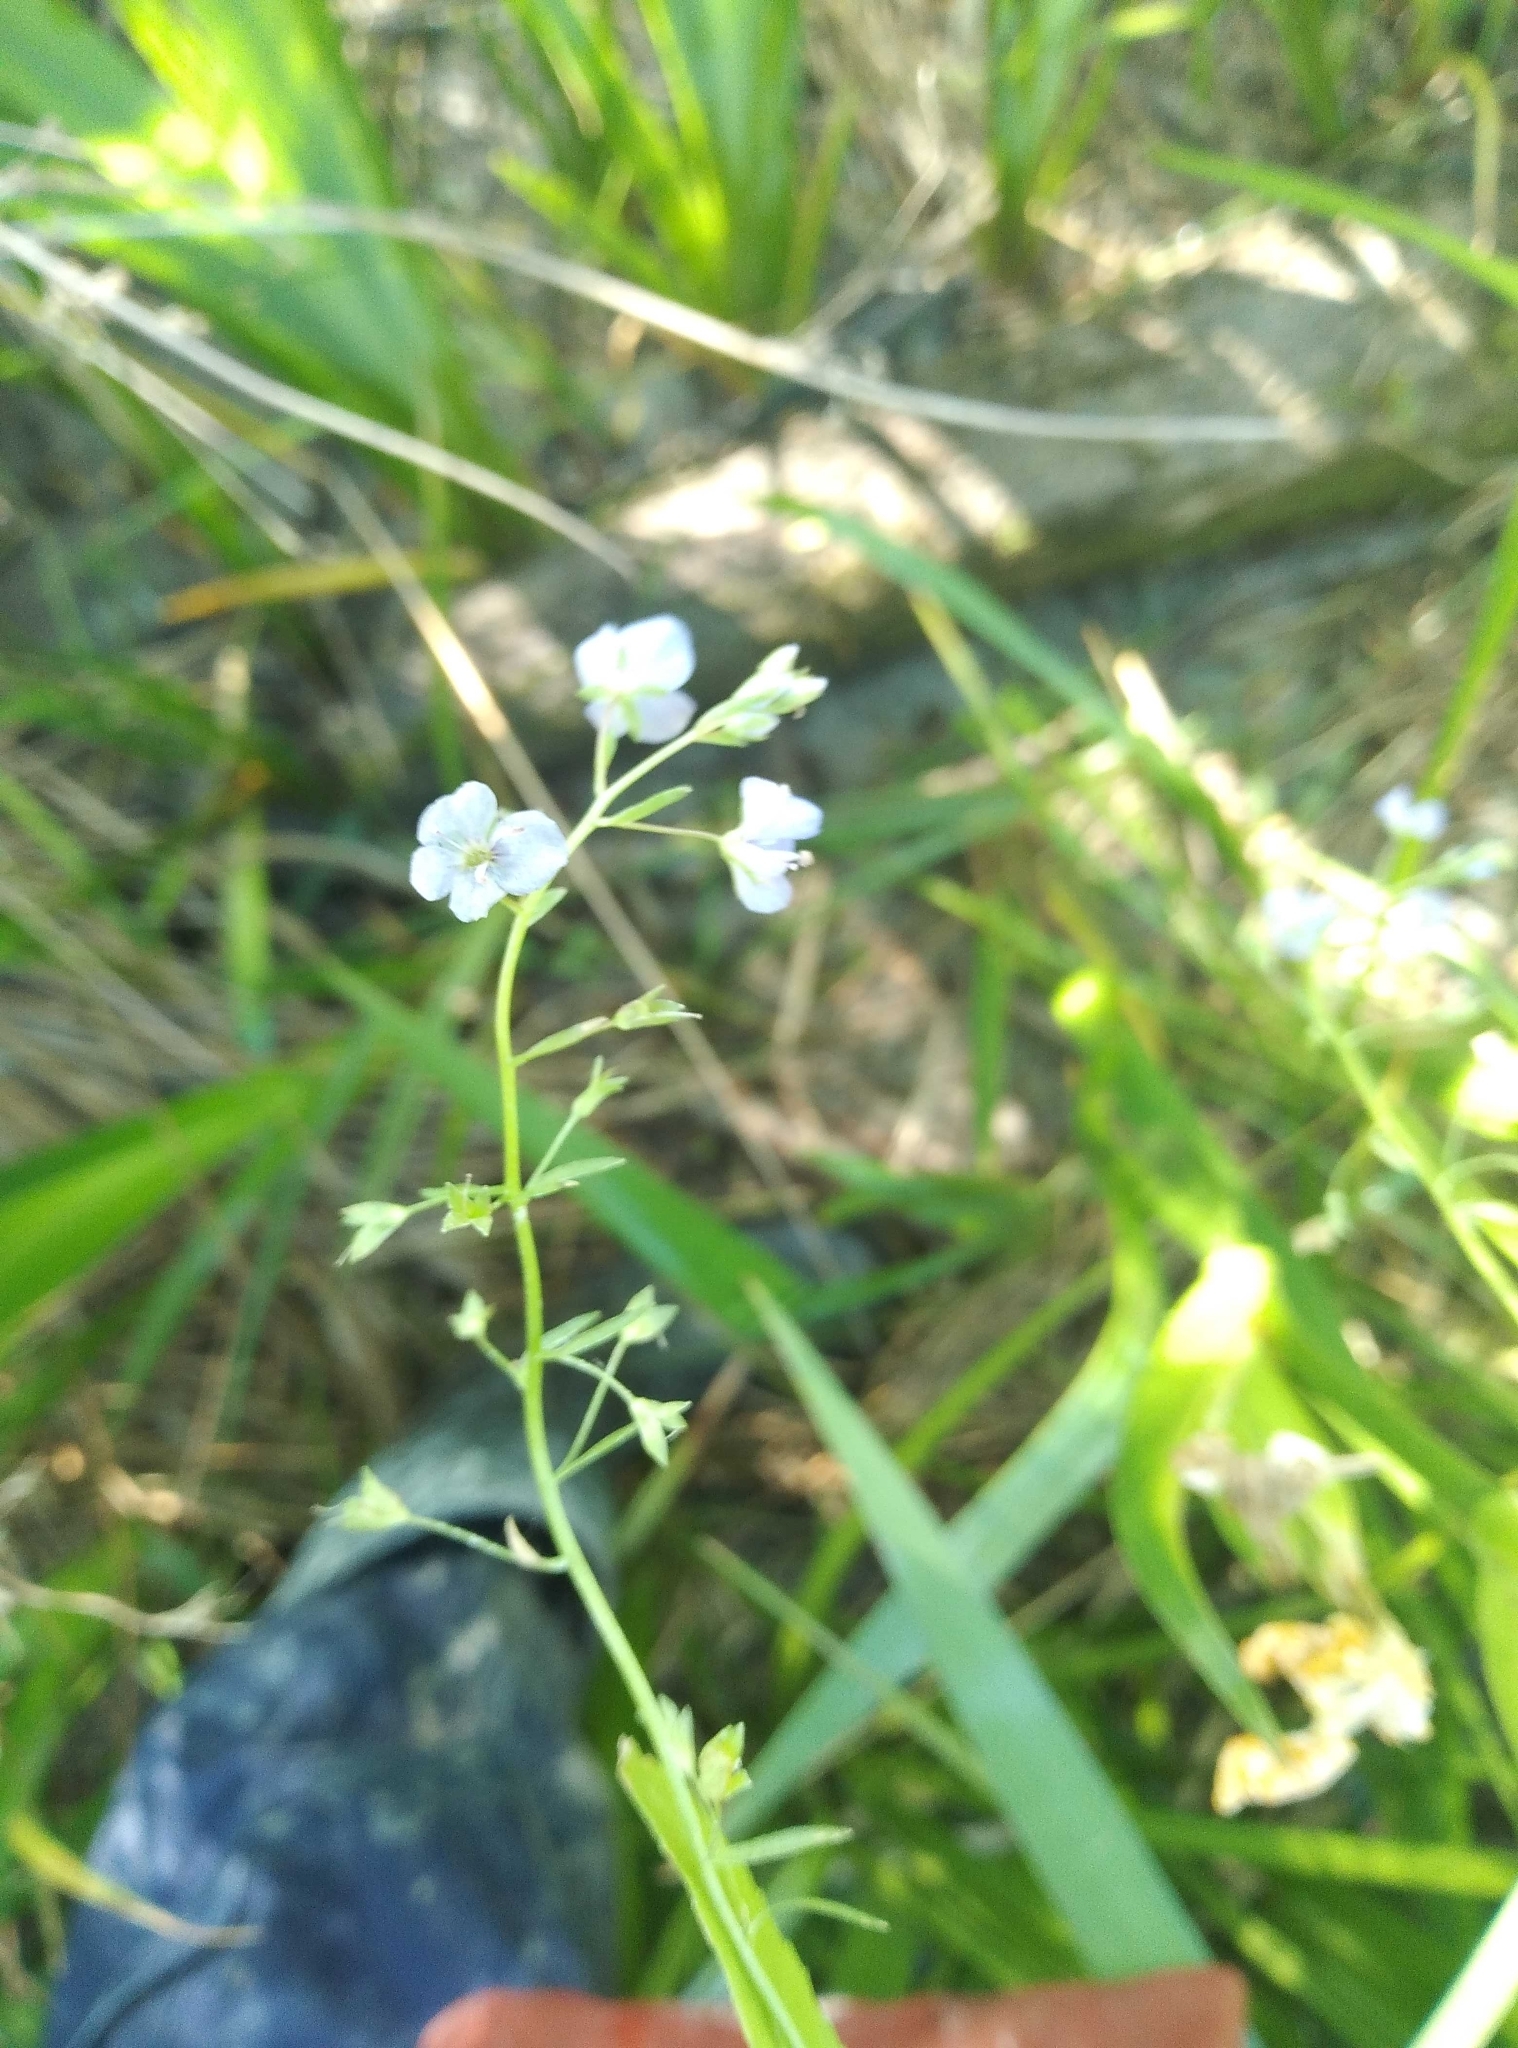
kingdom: Plantae
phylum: Tracheophyta
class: Magnoliopsida
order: Lamiales
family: Plantaginaceae
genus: Veronica
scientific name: Veronica americana
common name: American brooklime
